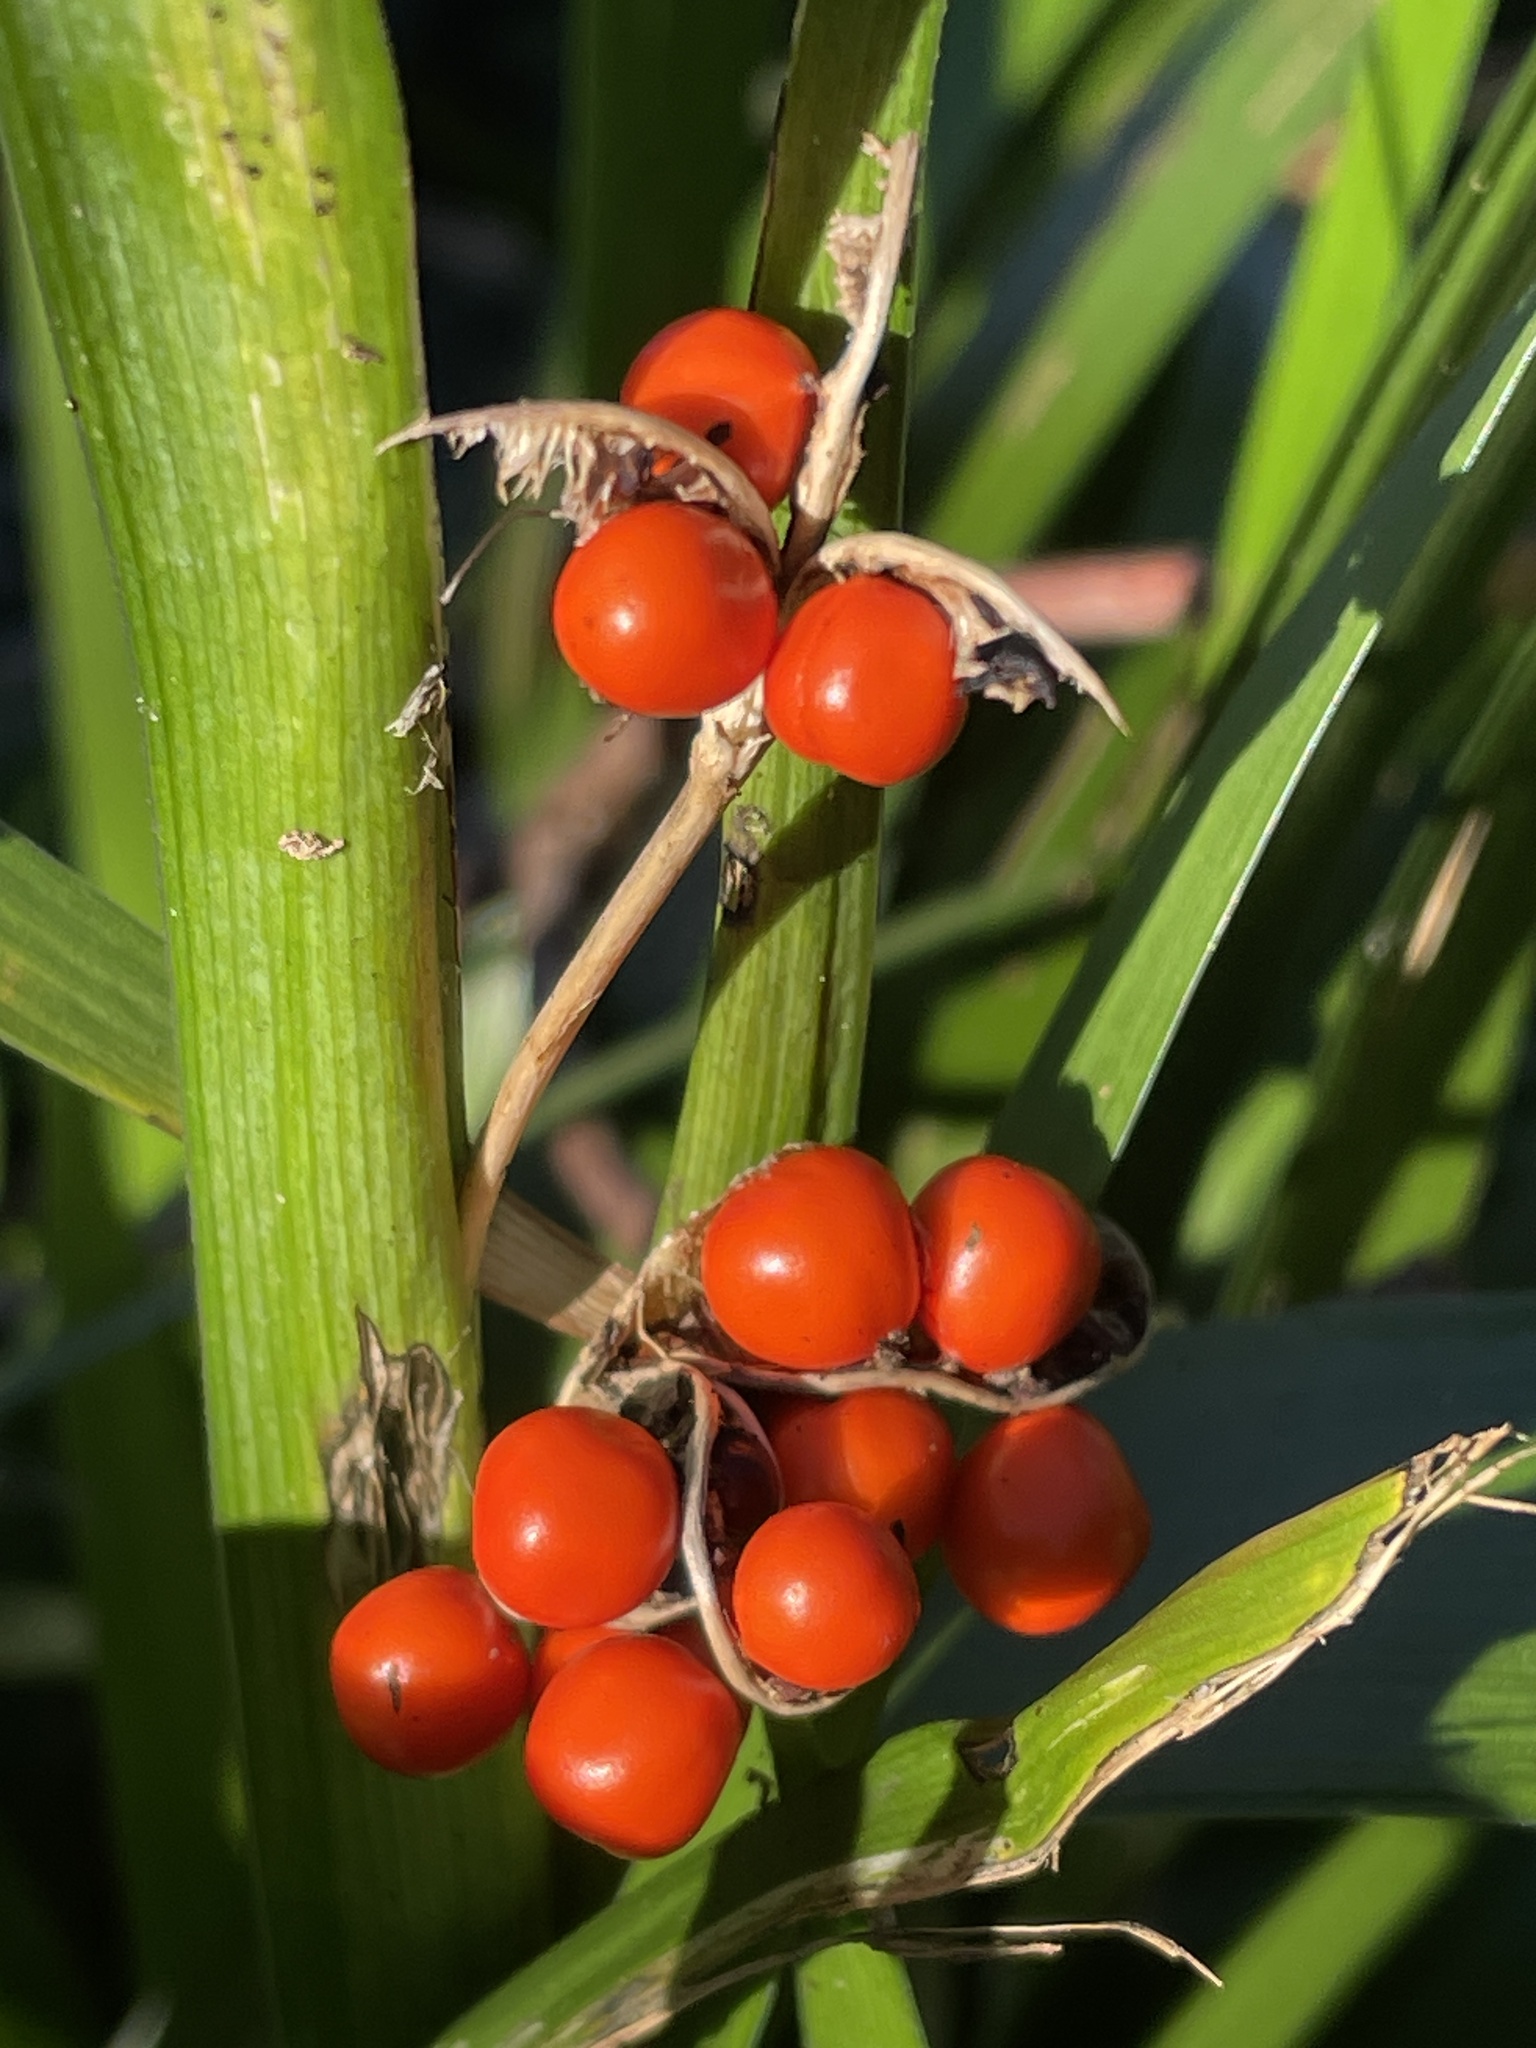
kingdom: Plantae
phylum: Tracheophyta
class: Liliopsida
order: Asparagales
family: Iridaceae
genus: Iris
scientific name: Iris foetidissima
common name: Stinking iris
